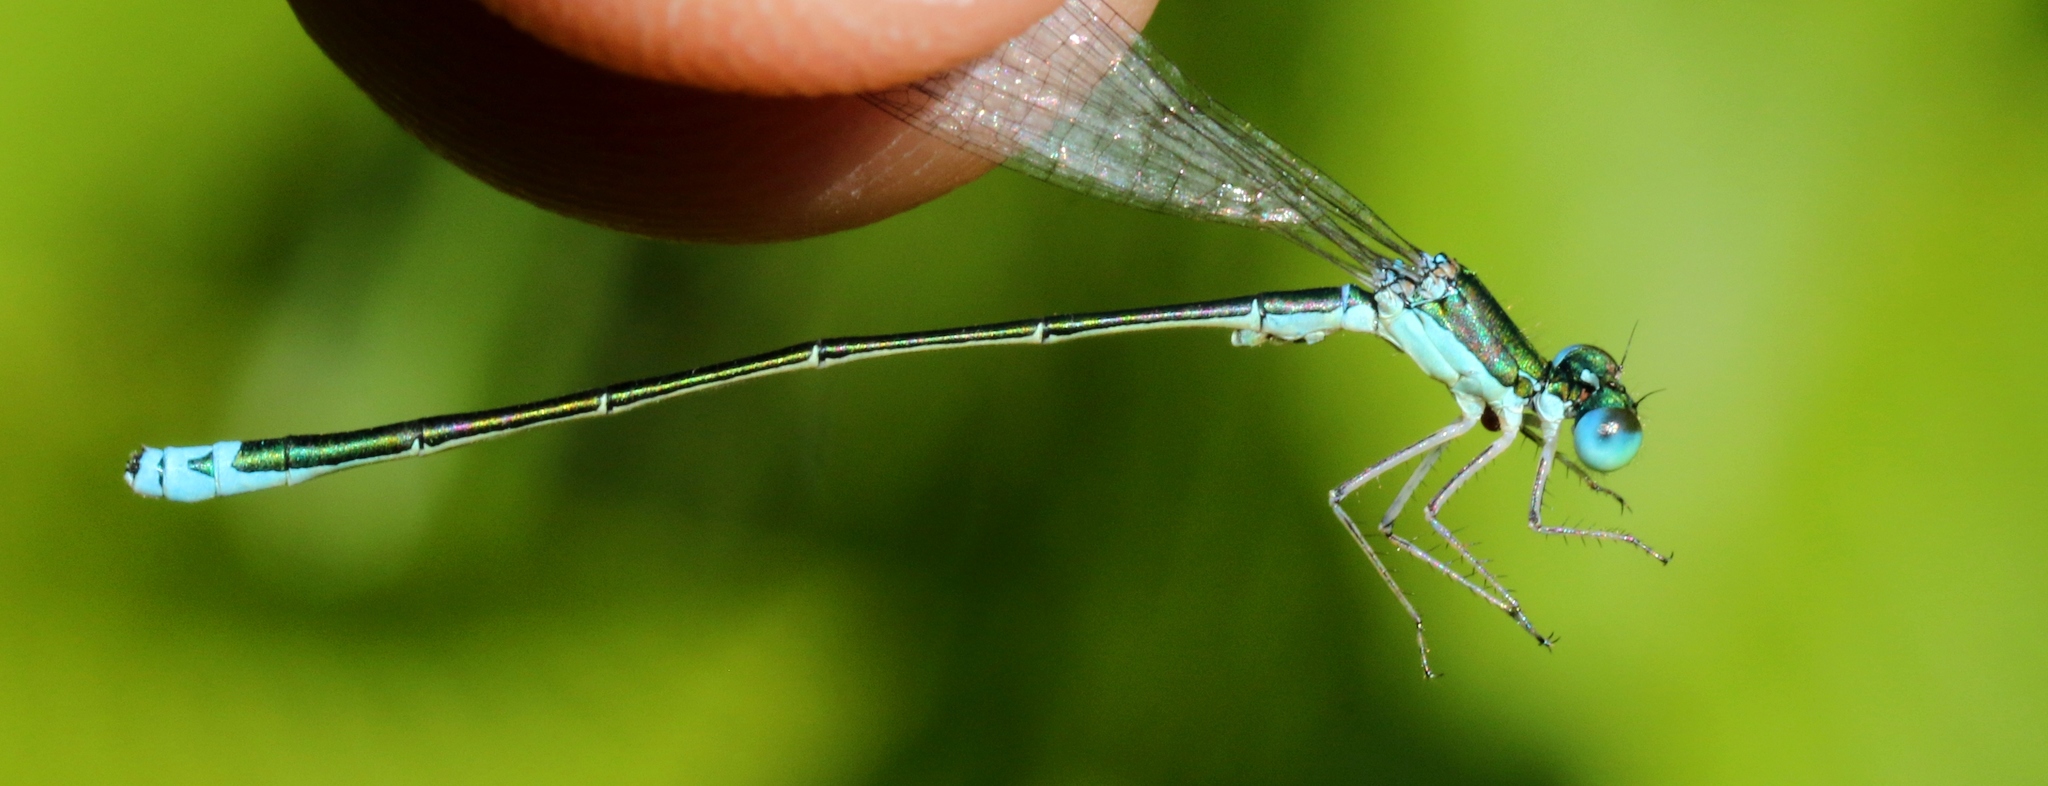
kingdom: Animalia
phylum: Arthropoda
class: Insecta
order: Odonata
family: Coenagrionidae
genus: Nehalennia
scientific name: Nehalennia irene
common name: Sedge sprite
